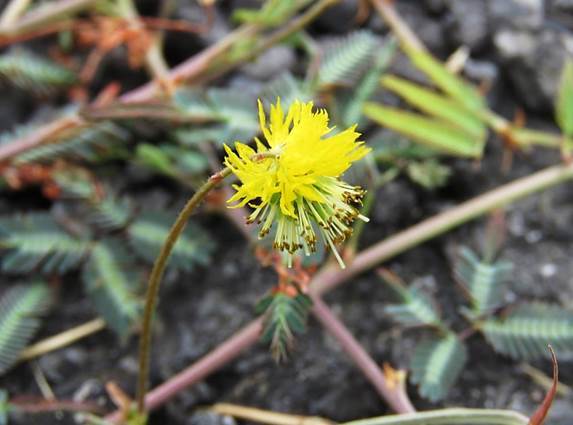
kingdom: Plantae
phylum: Tracheophyta
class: Magnoliopsida
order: Fabales
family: Fabaceae
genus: Neptunia
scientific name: Neptunia plena
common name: Dead and awake
